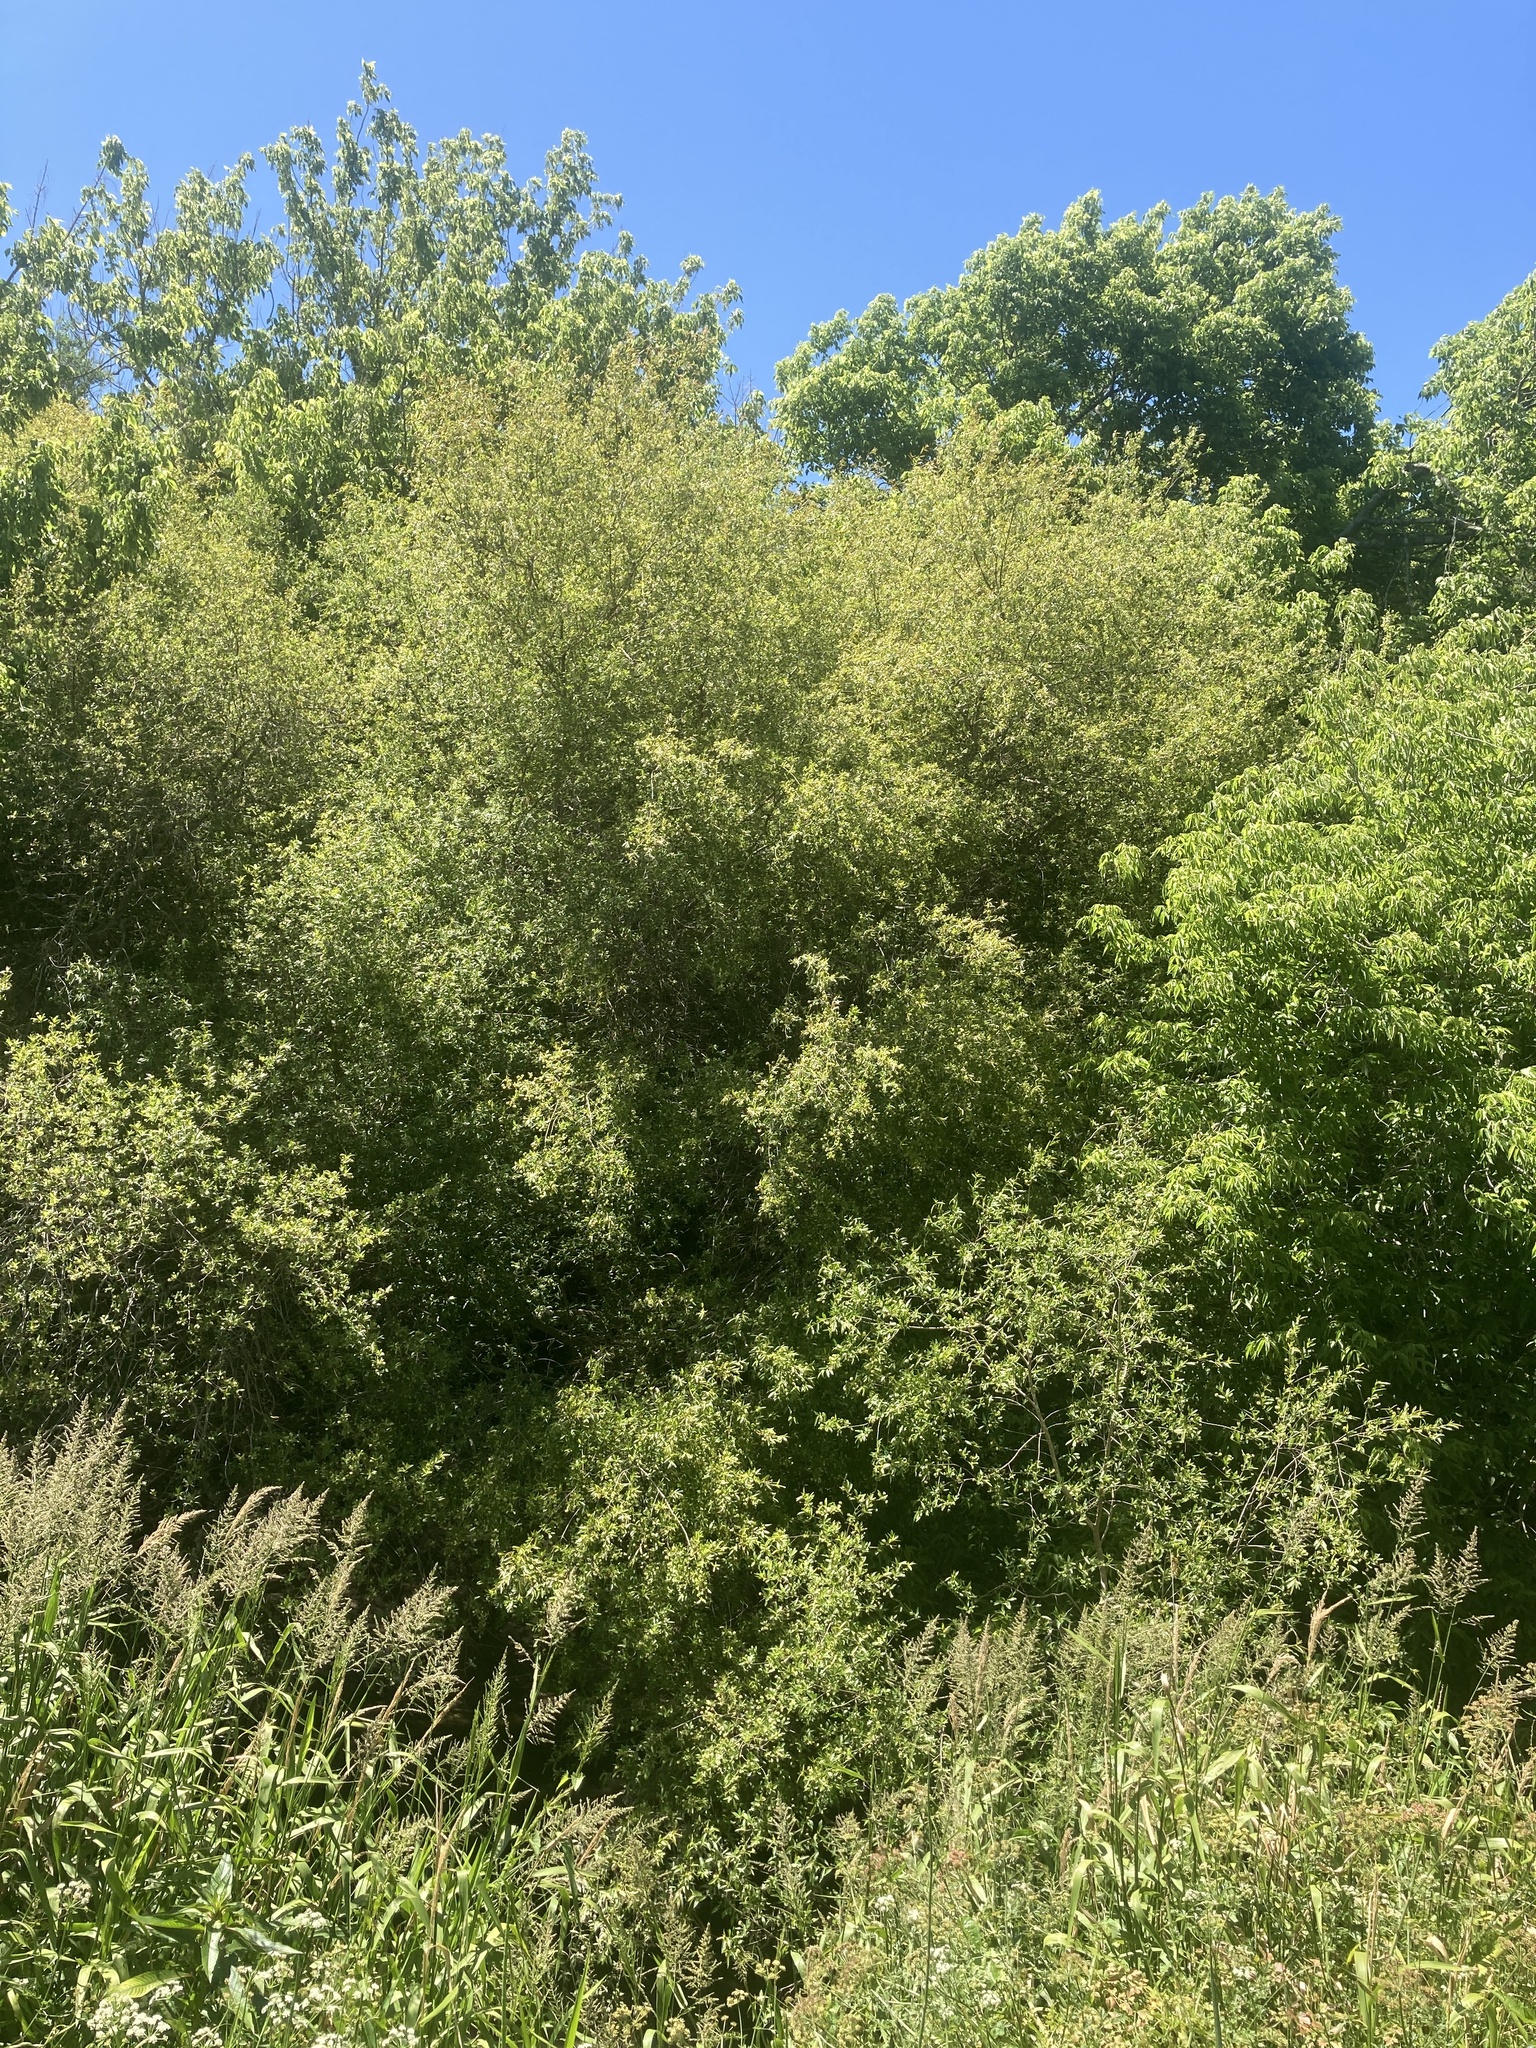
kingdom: Plantae
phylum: Tracheophyta
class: Magnoliopsida
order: Myrtales
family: Combretaceae
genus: Terminalia
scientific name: Terminalia australis
